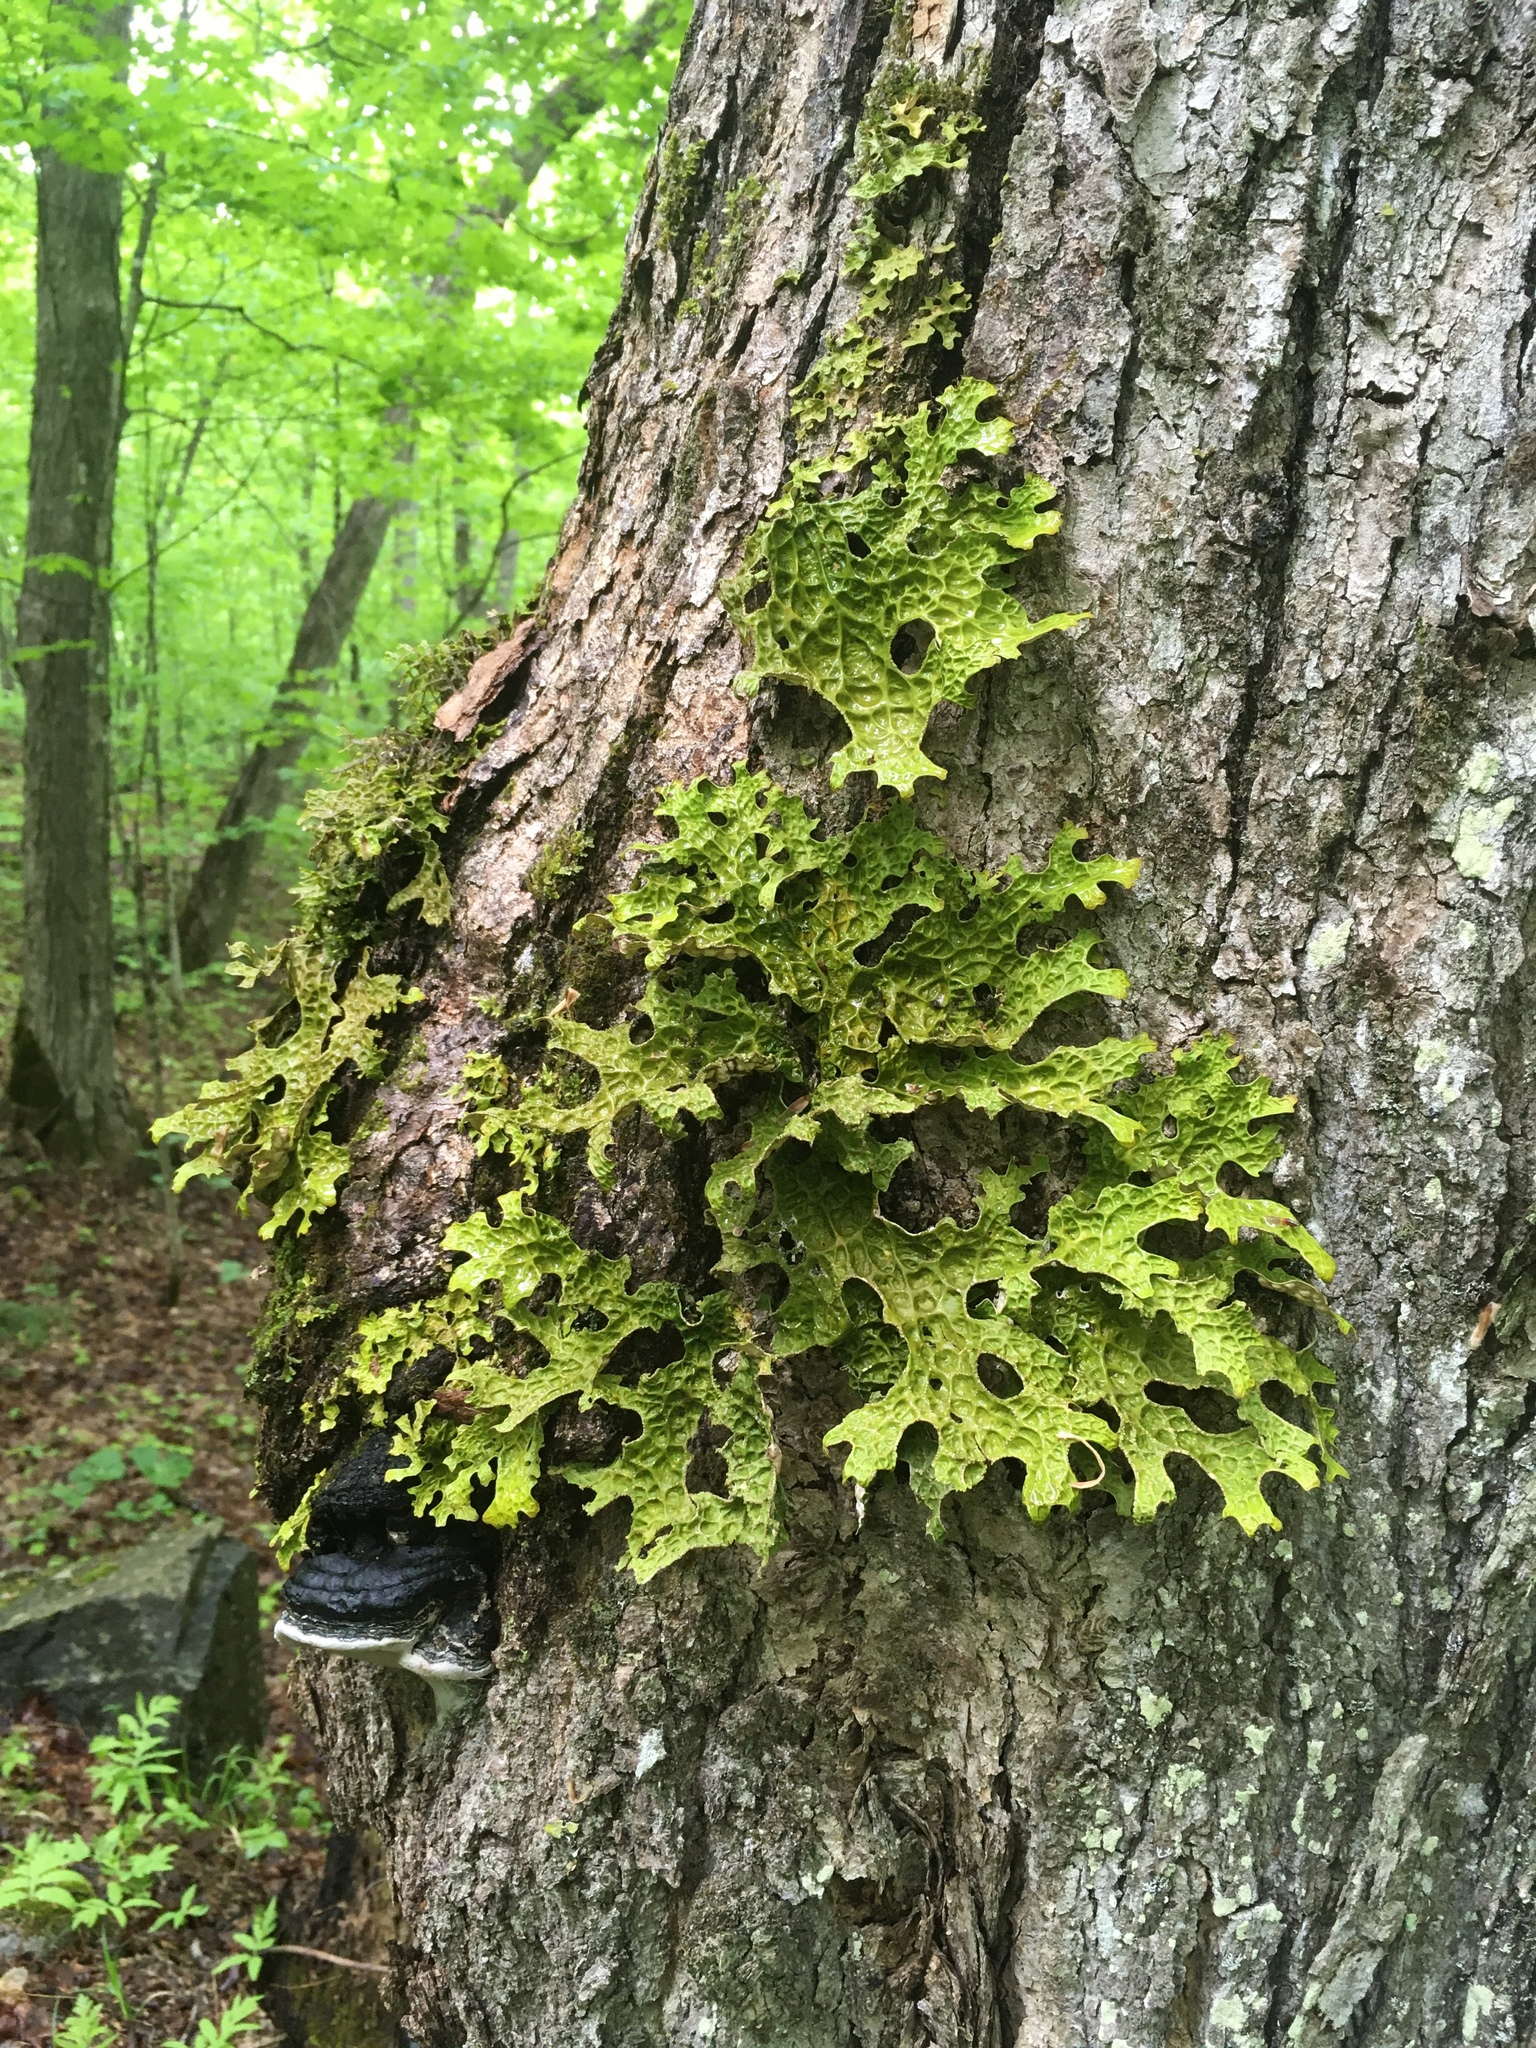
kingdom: Fungi
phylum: Ascomycota
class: Lecanoromycetes
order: Peltigerales
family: Lobariaceae
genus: Lobaria
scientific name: Lobaria pulmonaria
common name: Lungwort
